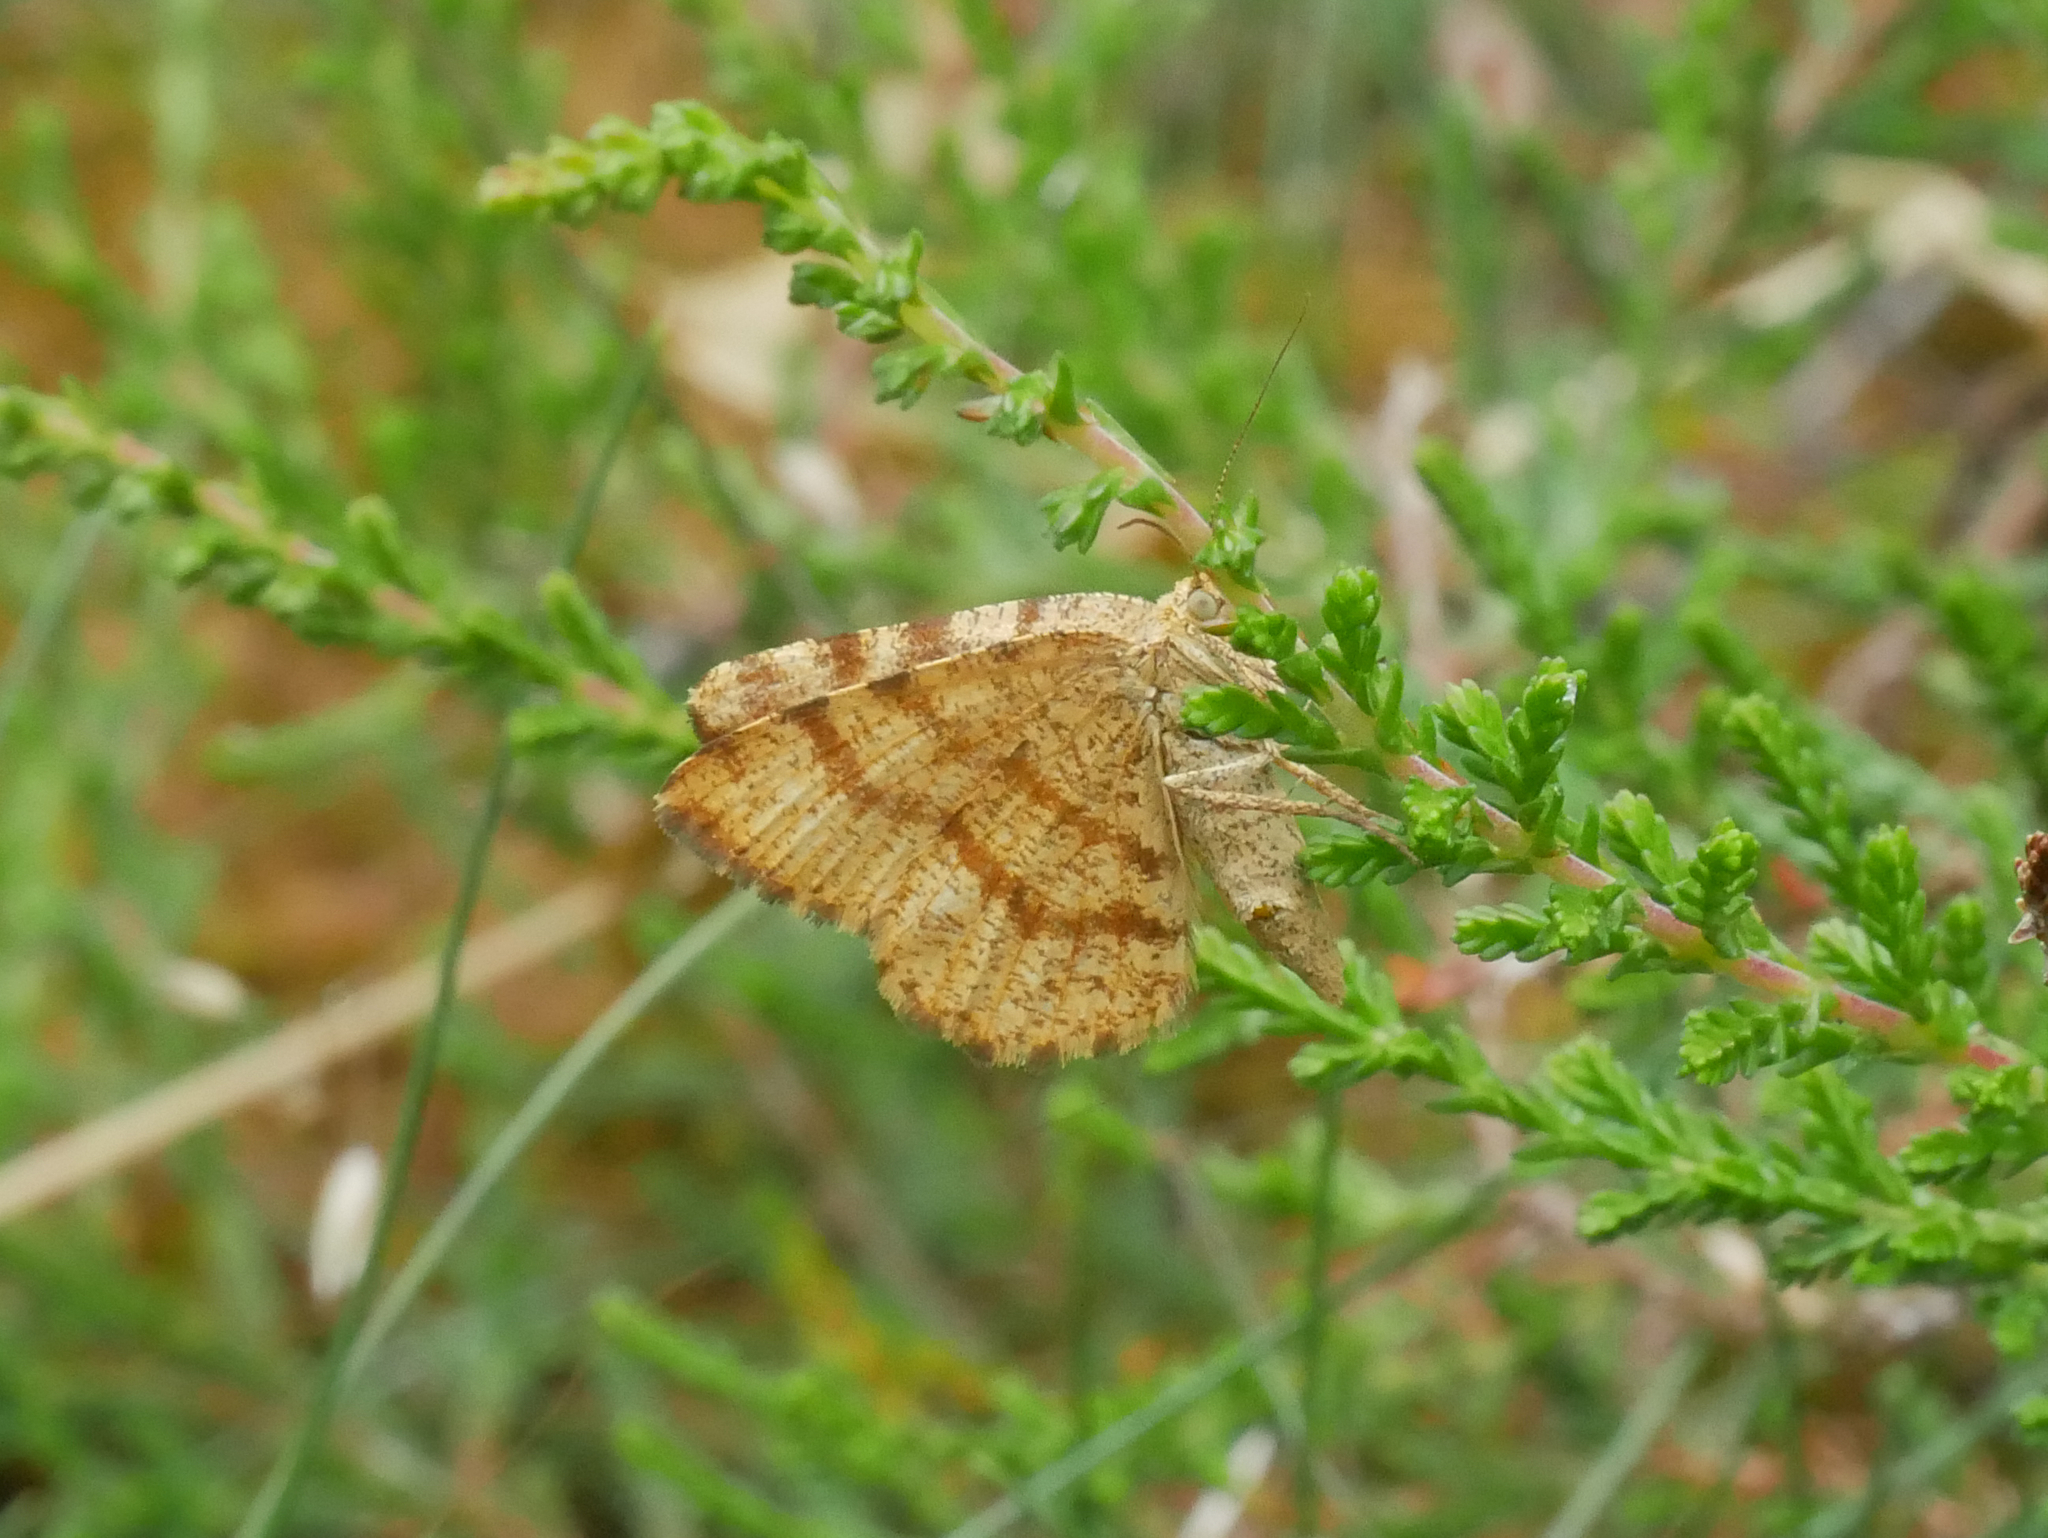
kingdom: Animalia
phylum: Arthropoda
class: Insecta
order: Lepidoptera
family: Geometridae
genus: Ematurga
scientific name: Ematurga atomaria
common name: Common heath
